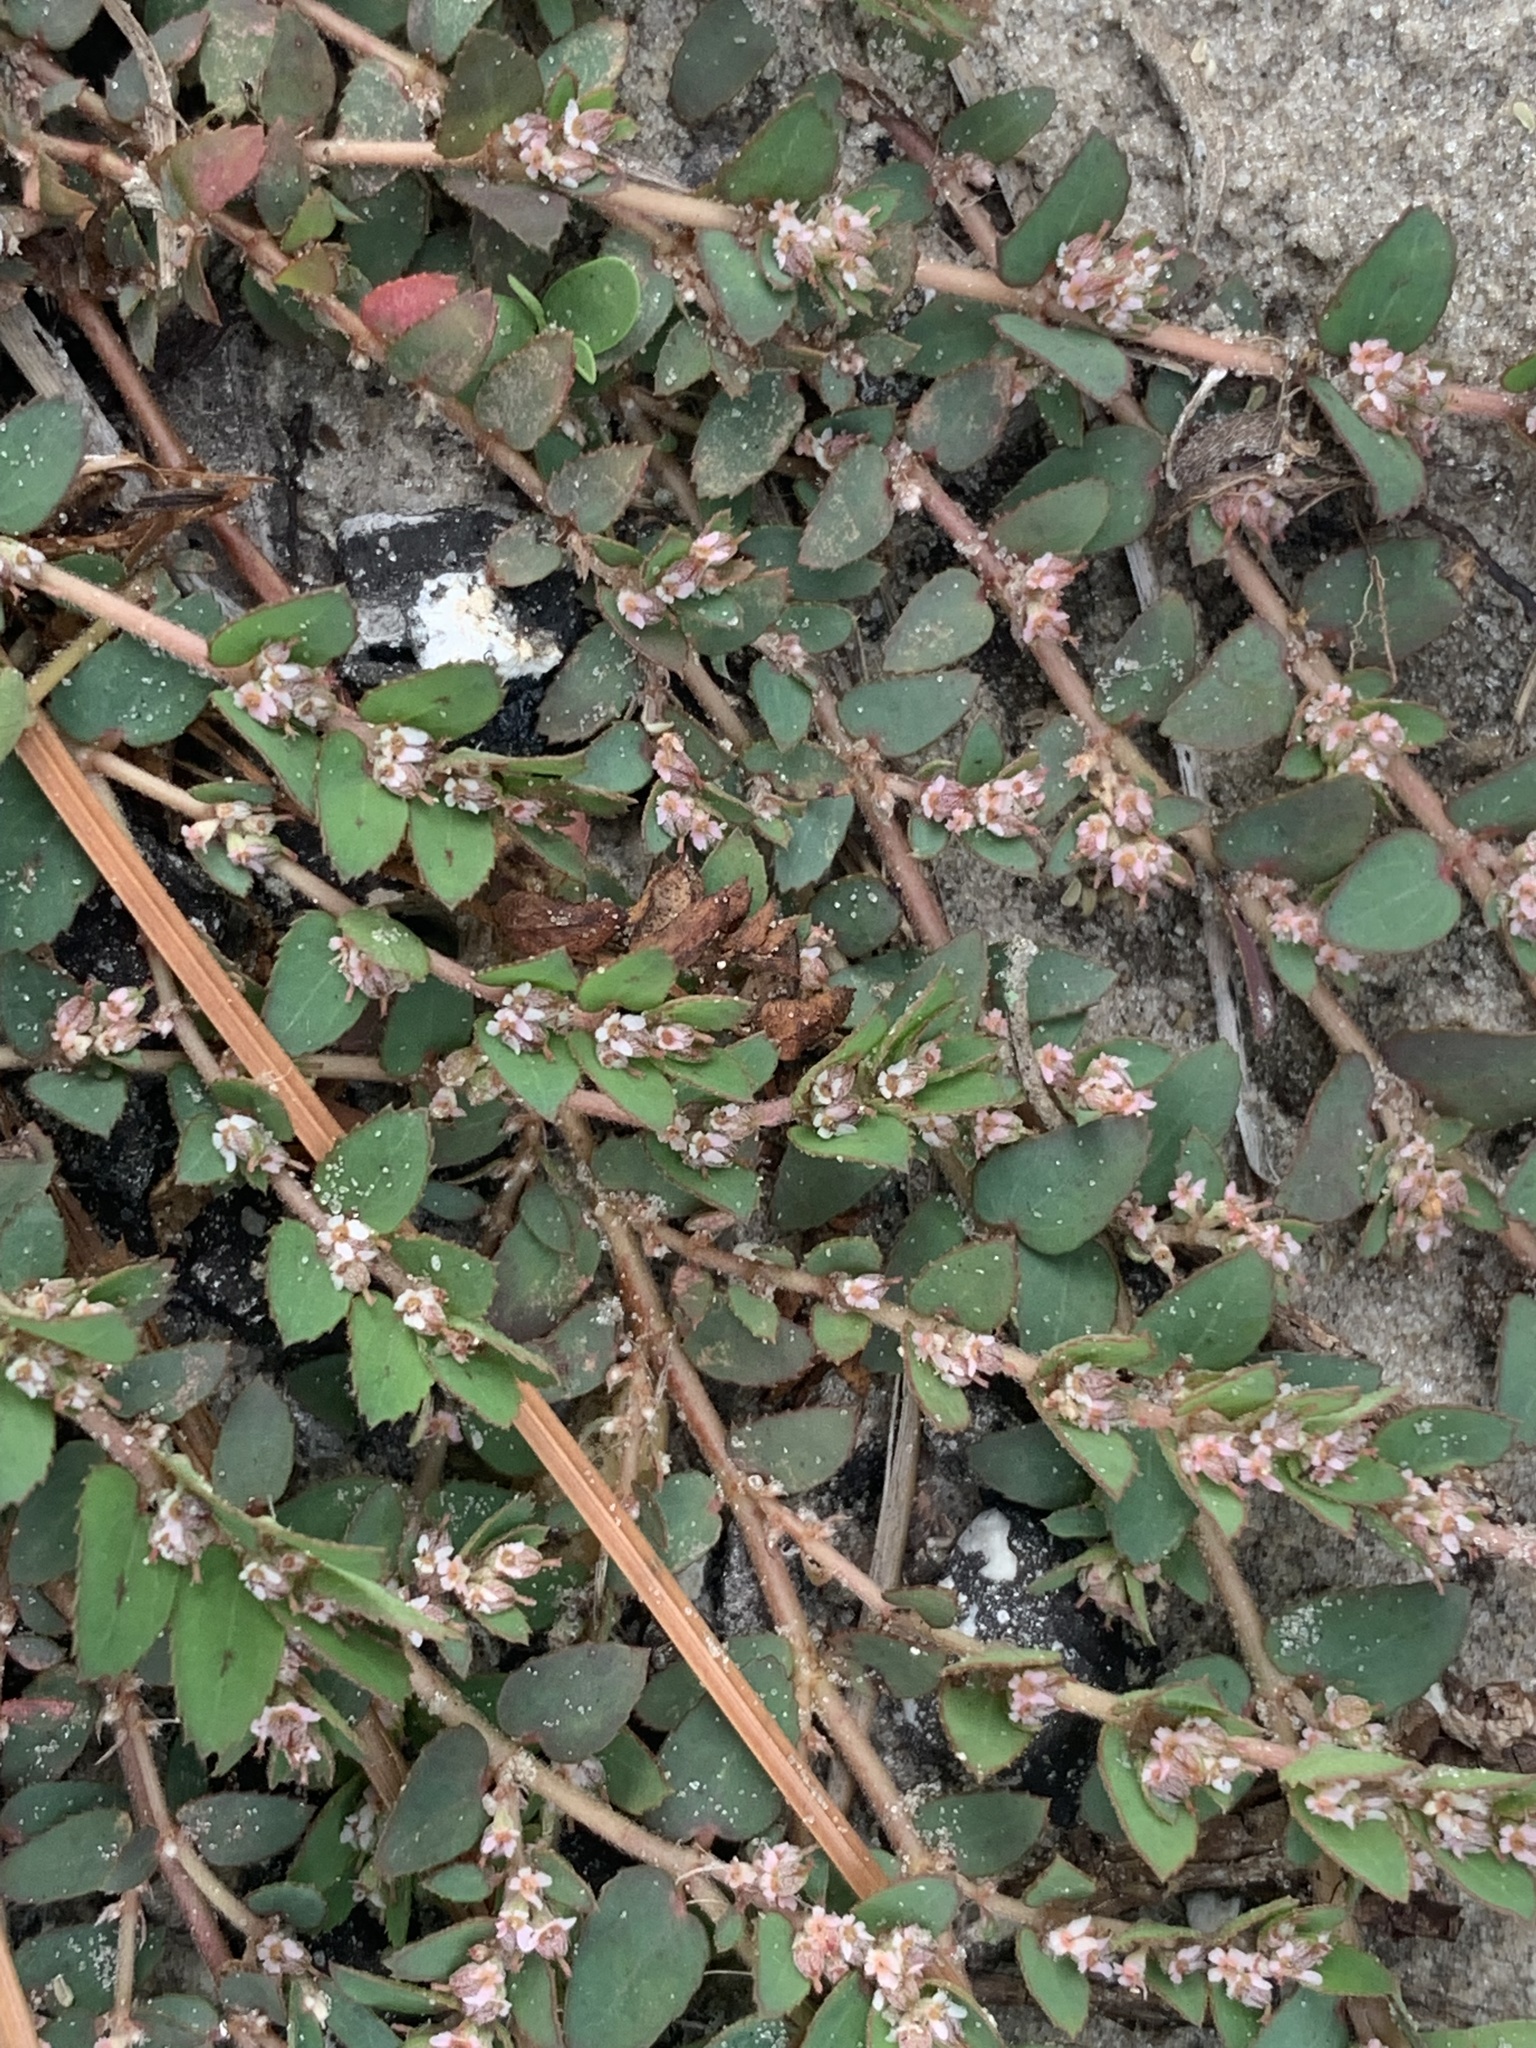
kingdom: Plantae
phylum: Tracheophyta
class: Magnoliopsida
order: Malpighiales
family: Euphorbiaceae
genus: Euphorbia
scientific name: Euphorbia thymifolia
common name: Gulf sandmat
